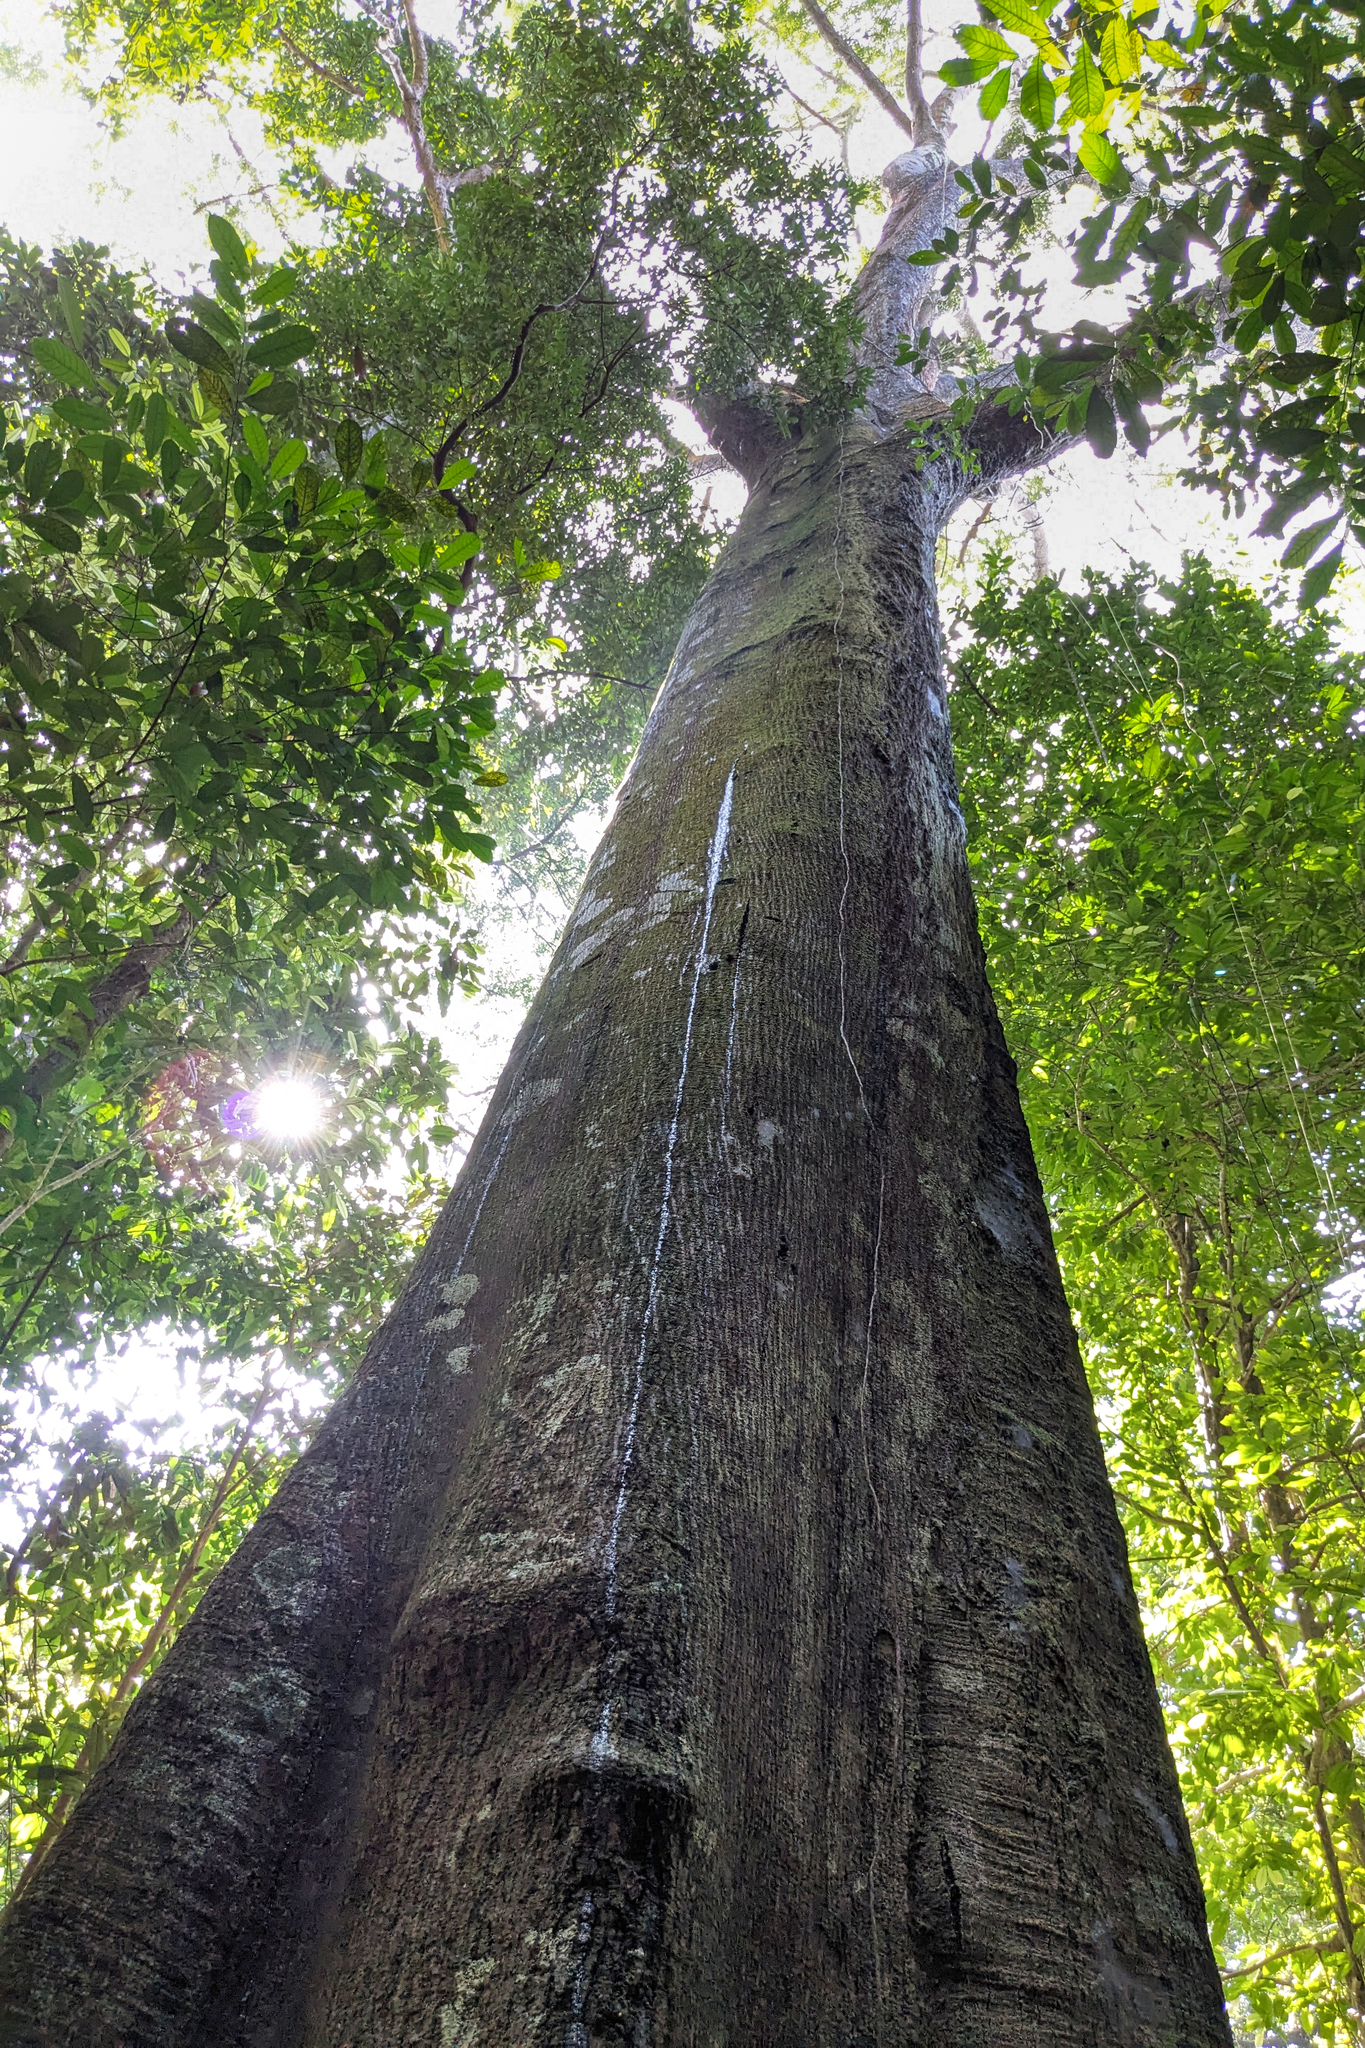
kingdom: Plantae
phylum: Tracheophyta
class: Magnoliopsida
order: Sapindales
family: Anacardiaceae
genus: Parishia
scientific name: Parishia insignis
